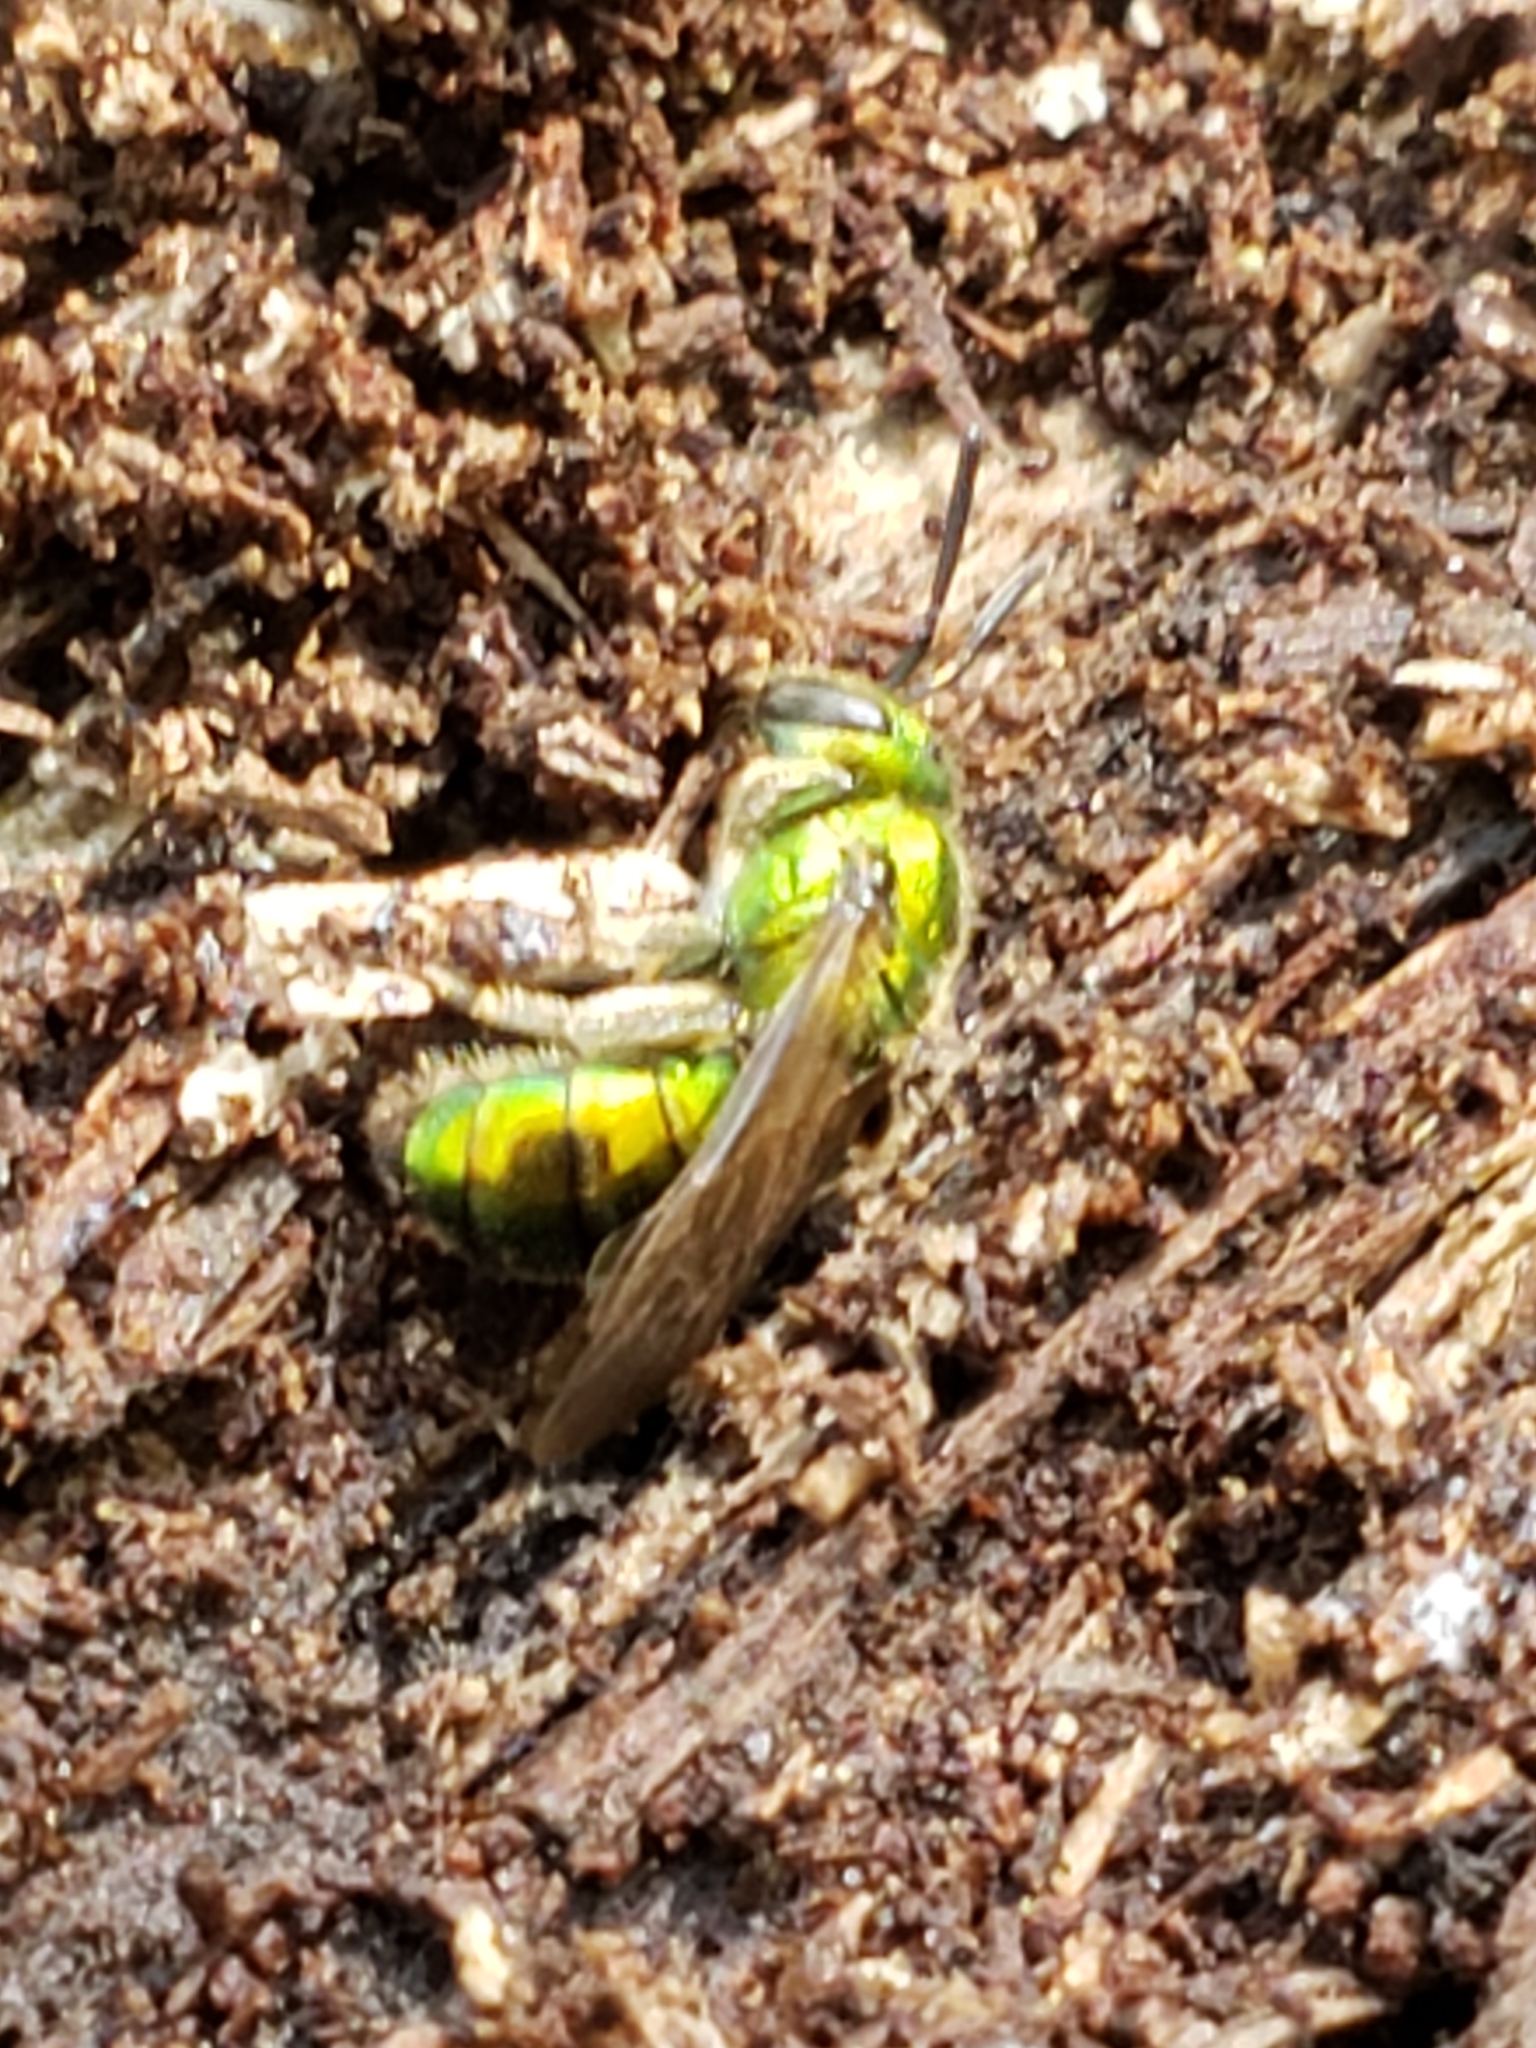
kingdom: Animalia
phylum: Arthropoda
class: Insecta
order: Hymenoptera
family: Halictidae
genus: Augochlora
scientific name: Augochlora pura
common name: Pure green sweat bee
